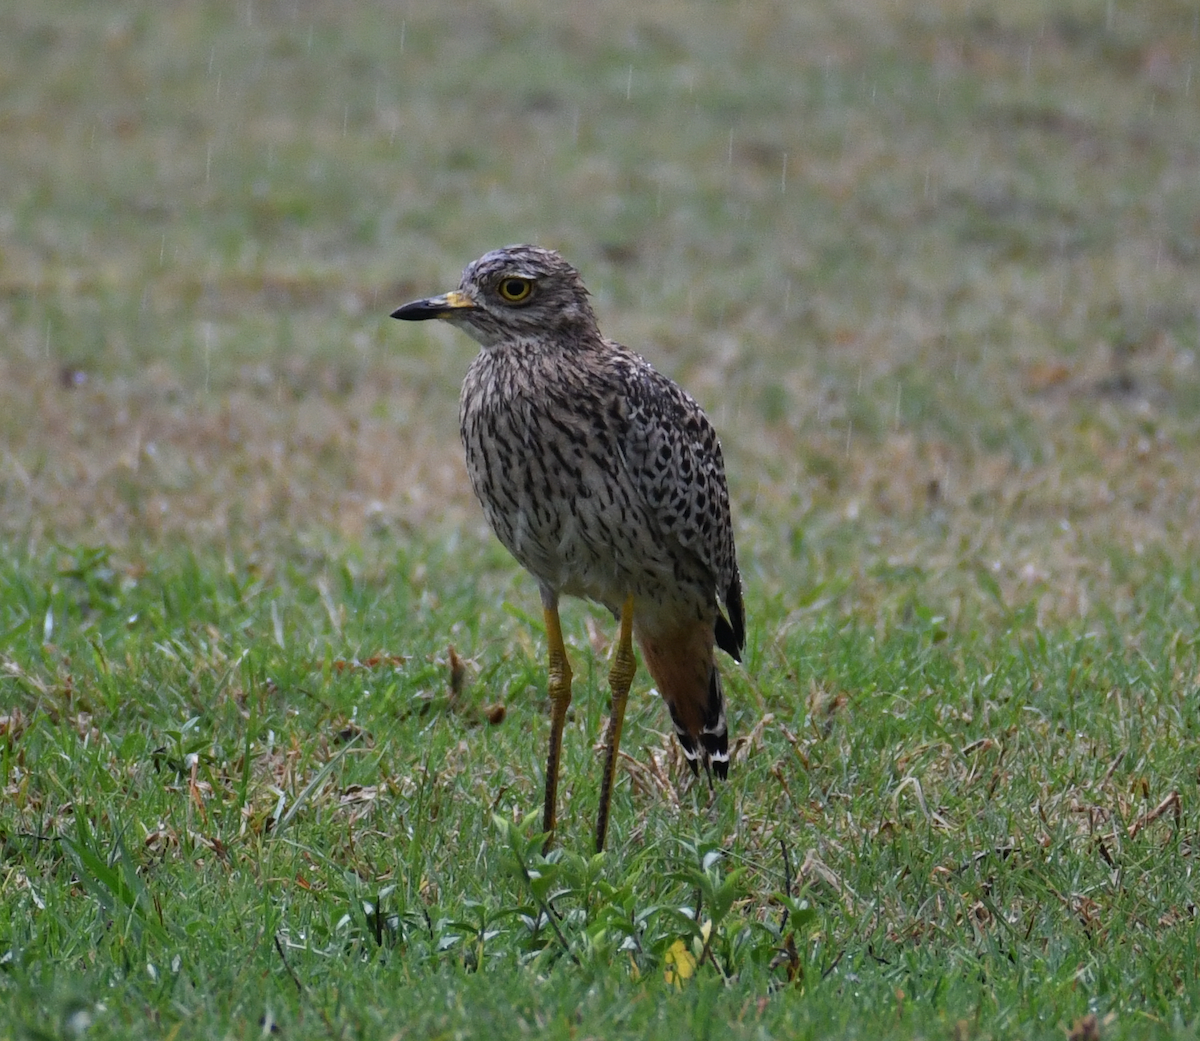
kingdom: Animalia
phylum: Chordata
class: Aves
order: Charadriiformes
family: Burhinidae
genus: Burhinus
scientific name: Burhinus capensis
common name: Spotted thick-knee
